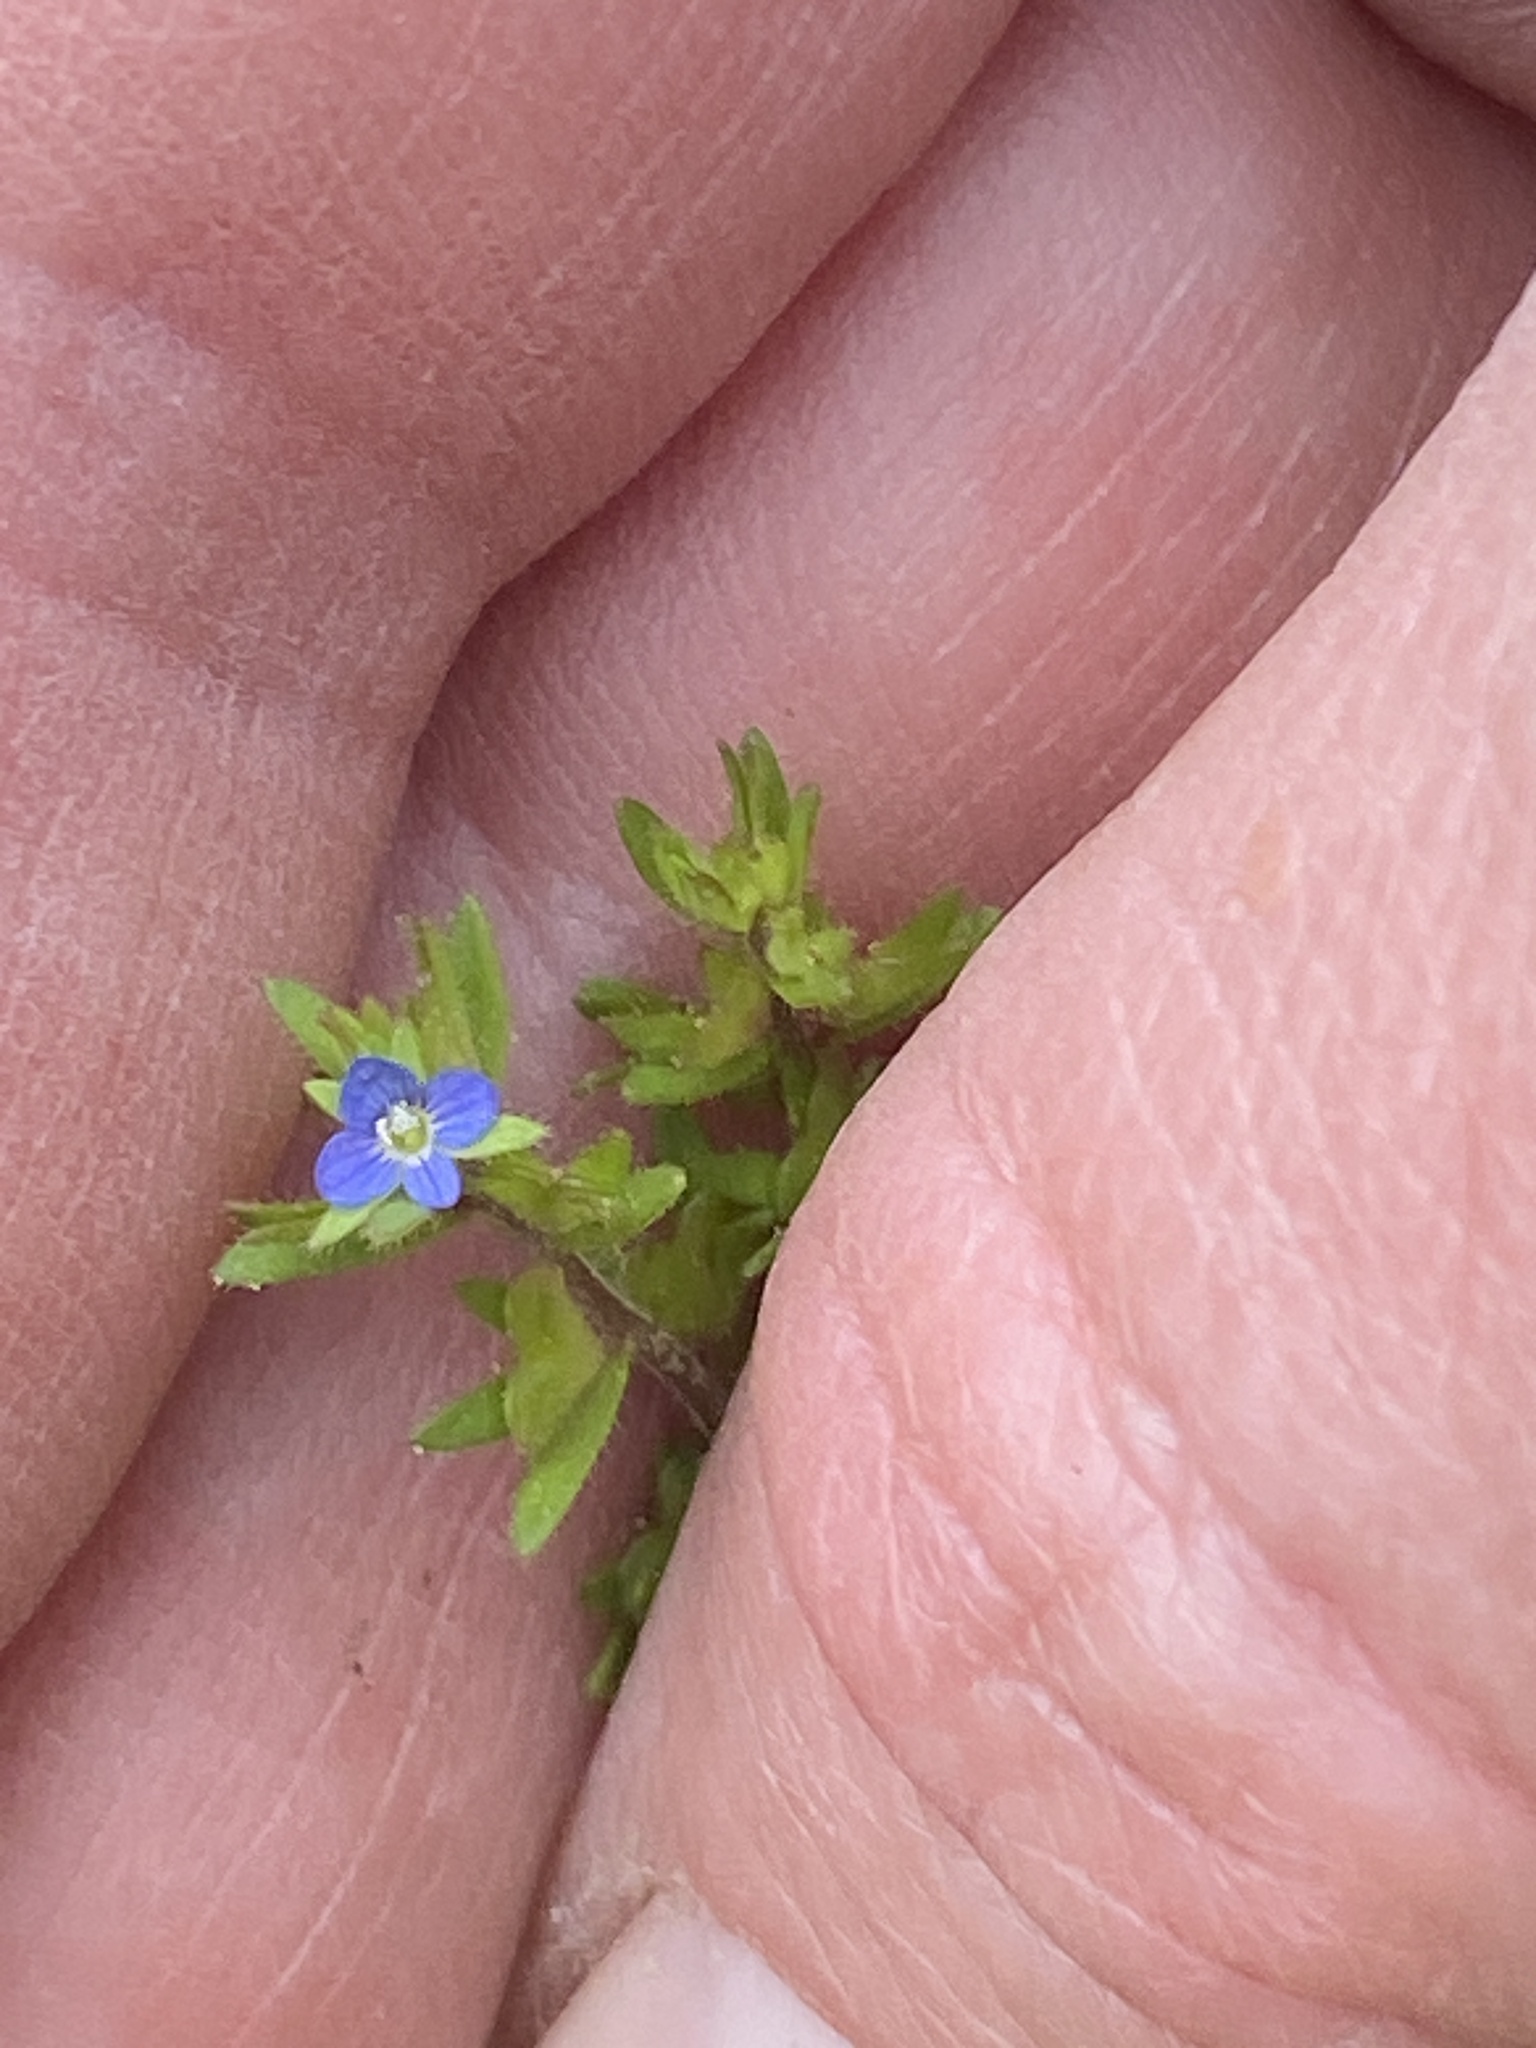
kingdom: Plantae
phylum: Tracheophyta
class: Magnoliopsida
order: Lamiales
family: Plantaginaceae
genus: Veronica
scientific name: Veronica arvensis
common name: Corn speedwell
